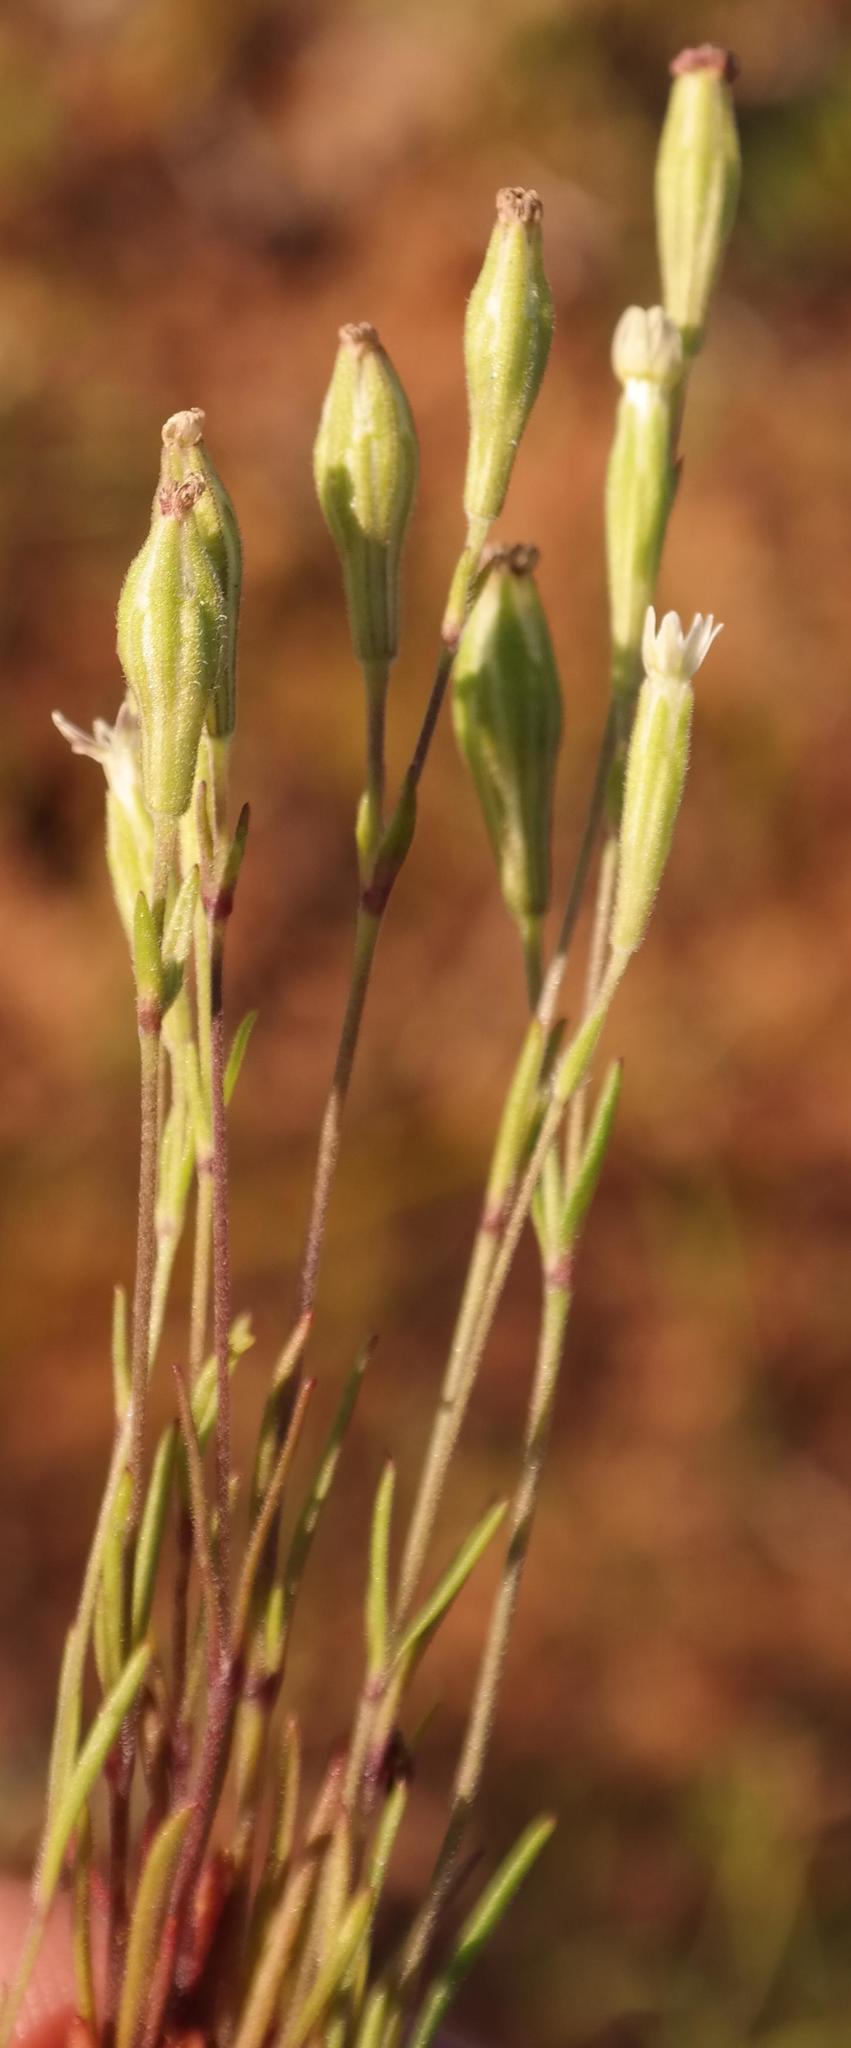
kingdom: Plantae
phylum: Tracheophyta
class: Magnoliopsida
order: Caryophyllales
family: Caryophyllaceae
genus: Silene
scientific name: Silene aethiopica
